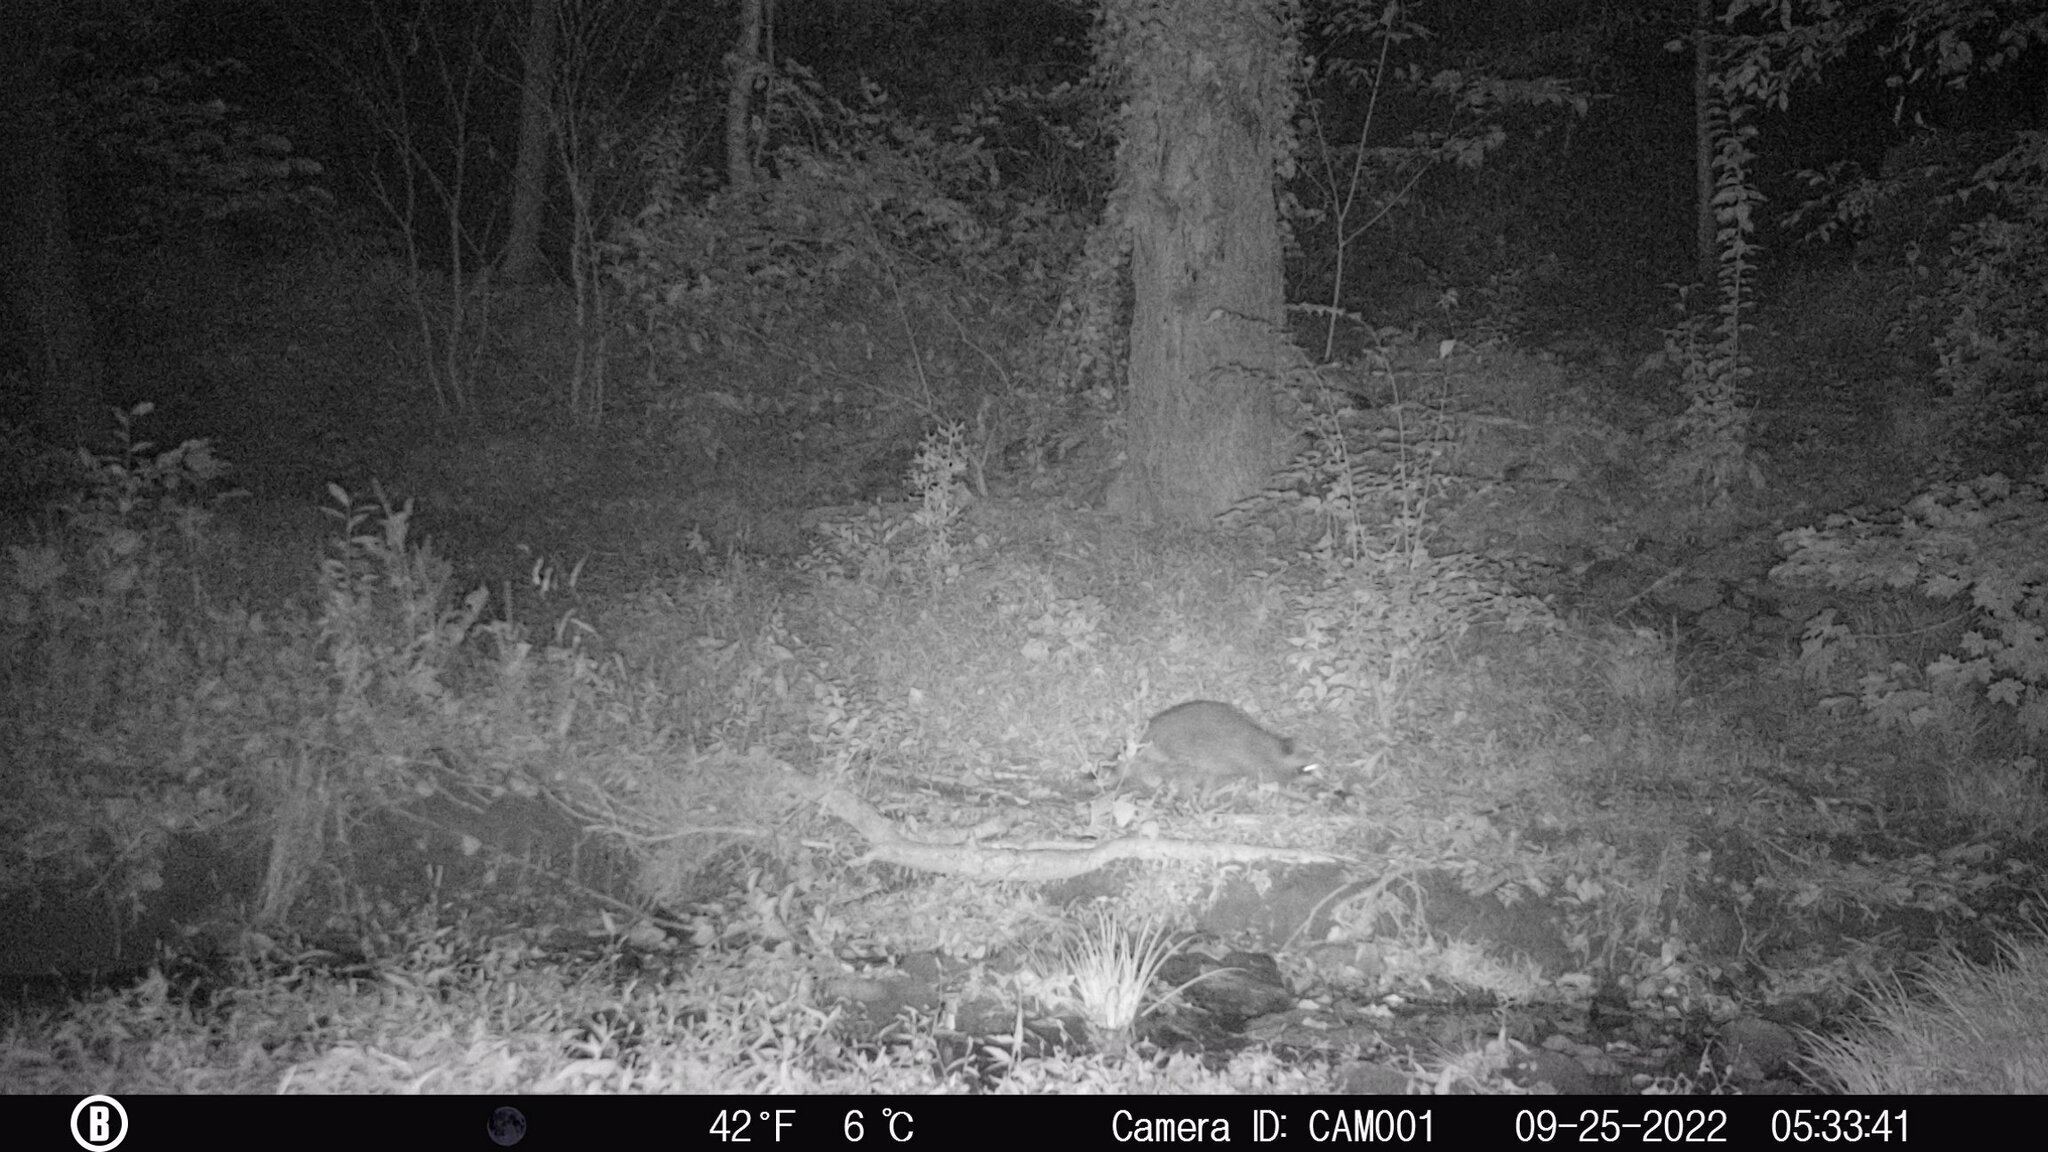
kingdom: Animalia
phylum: Chordata
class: Mammalia
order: Carnivora
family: Procyonidae
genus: Procyon
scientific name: Procyon lotor
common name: Raccoon
